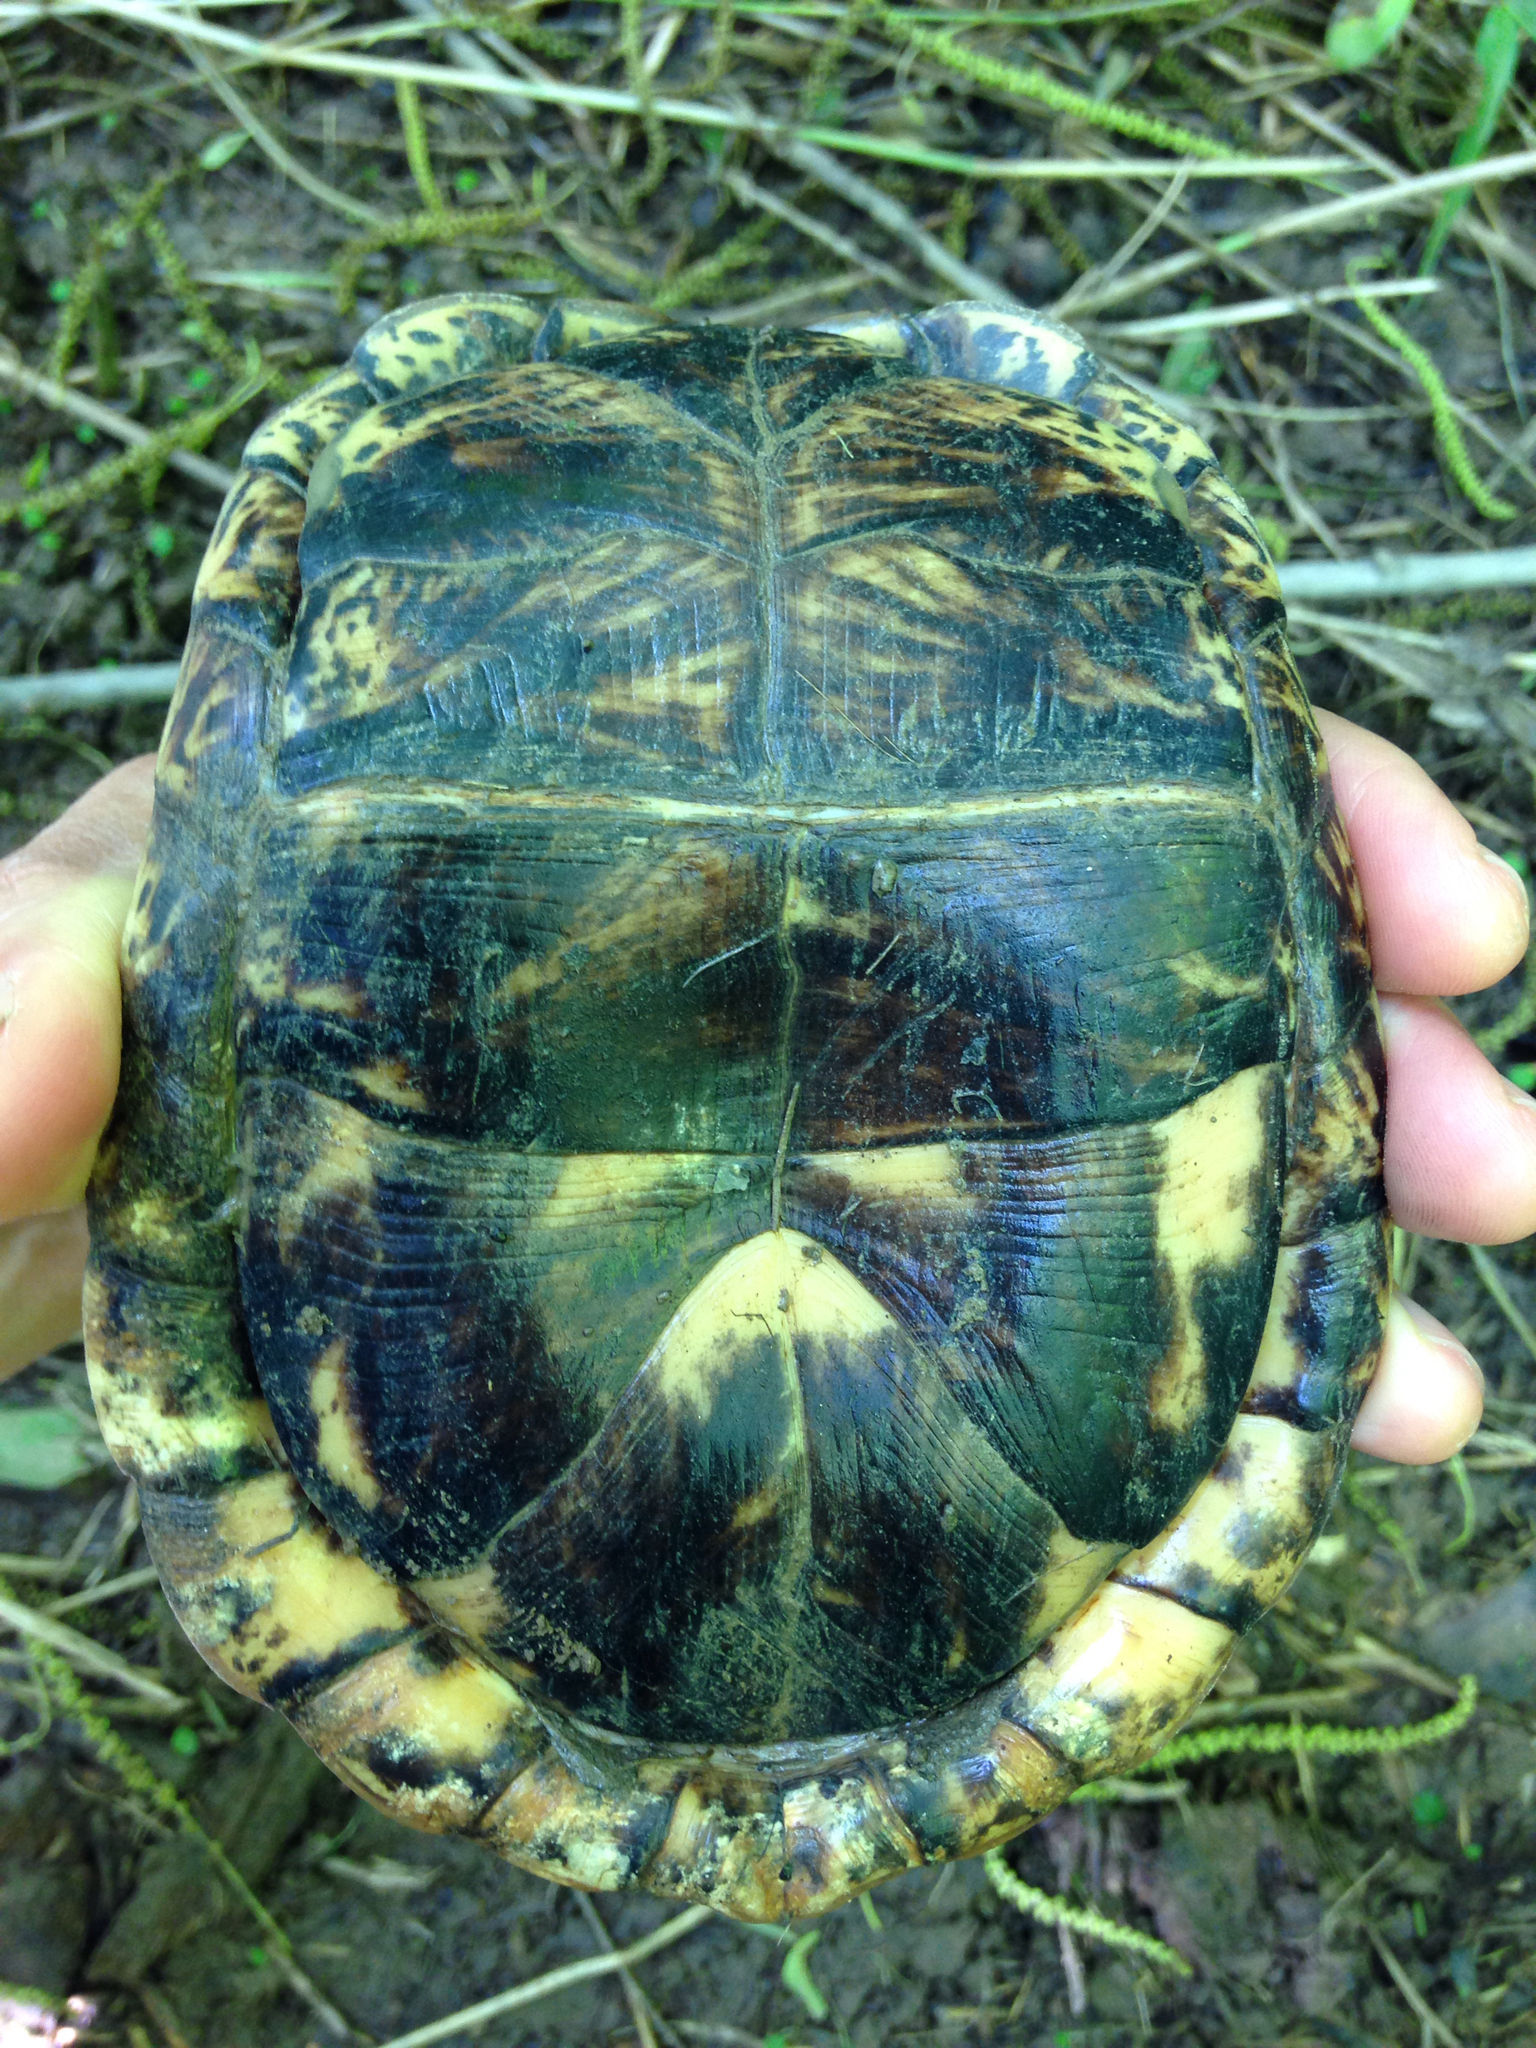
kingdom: Animalia
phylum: Chordata
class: Testudines
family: Emydidae
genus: Terrapene
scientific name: Terrapene carolina
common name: Common box turtle
